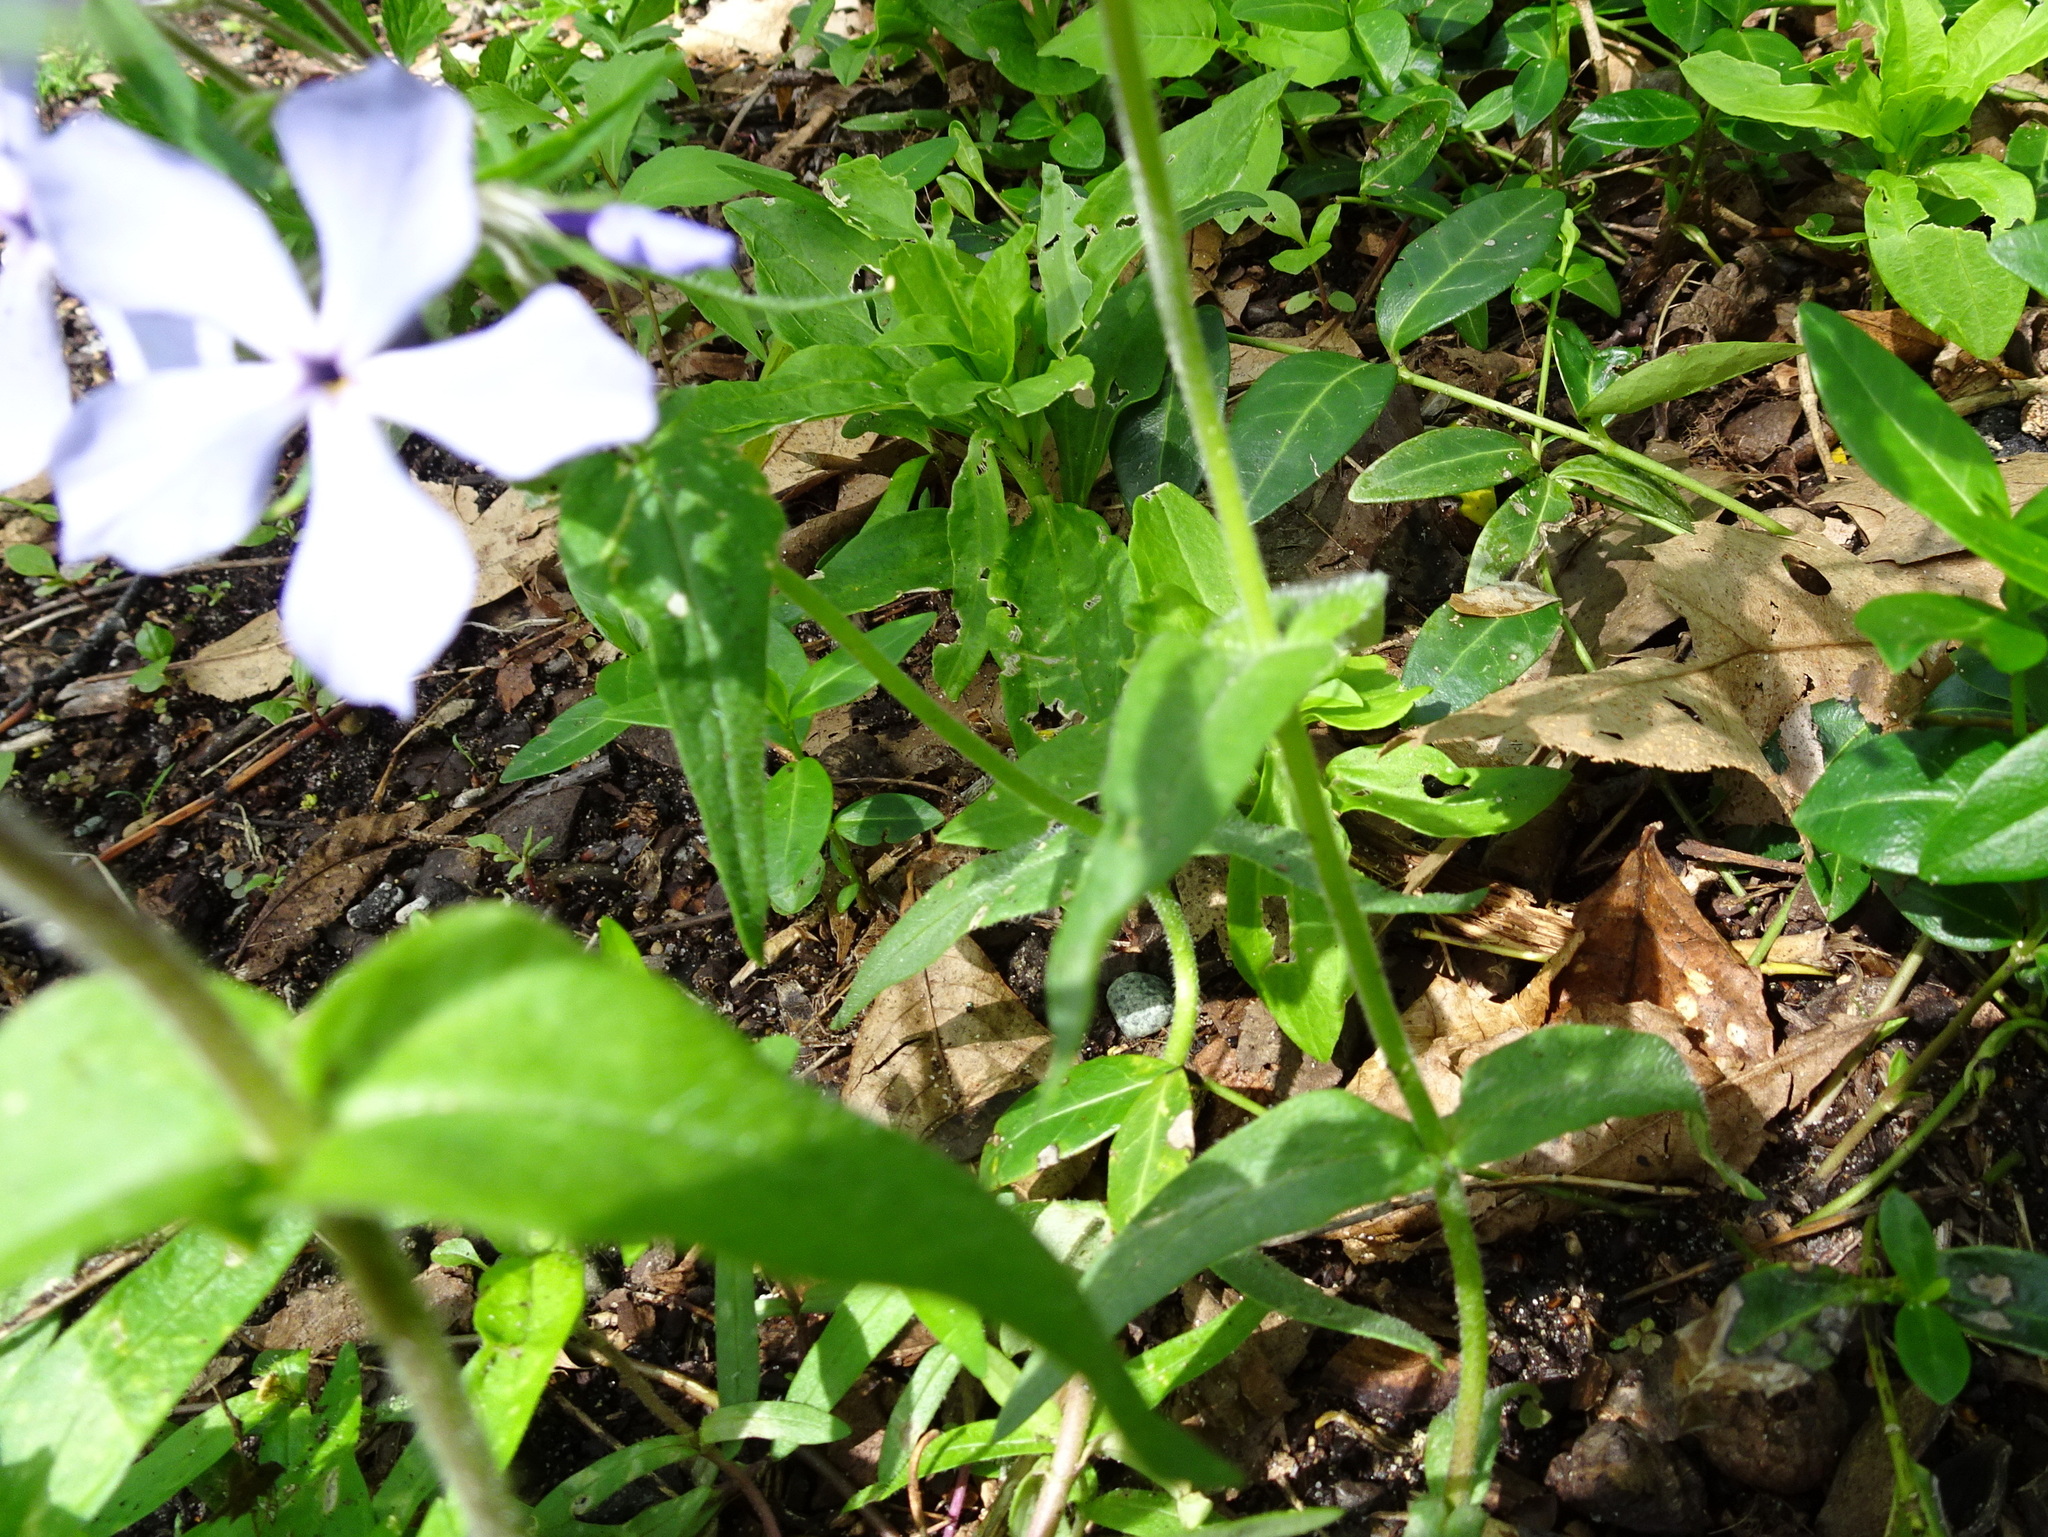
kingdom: Plantae
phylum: Tracheophyta
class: Magnoliopsida
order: Ericales
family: Polemoniaceae
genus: Phlox
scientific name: Phlox divaricata
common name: Blue phlox
